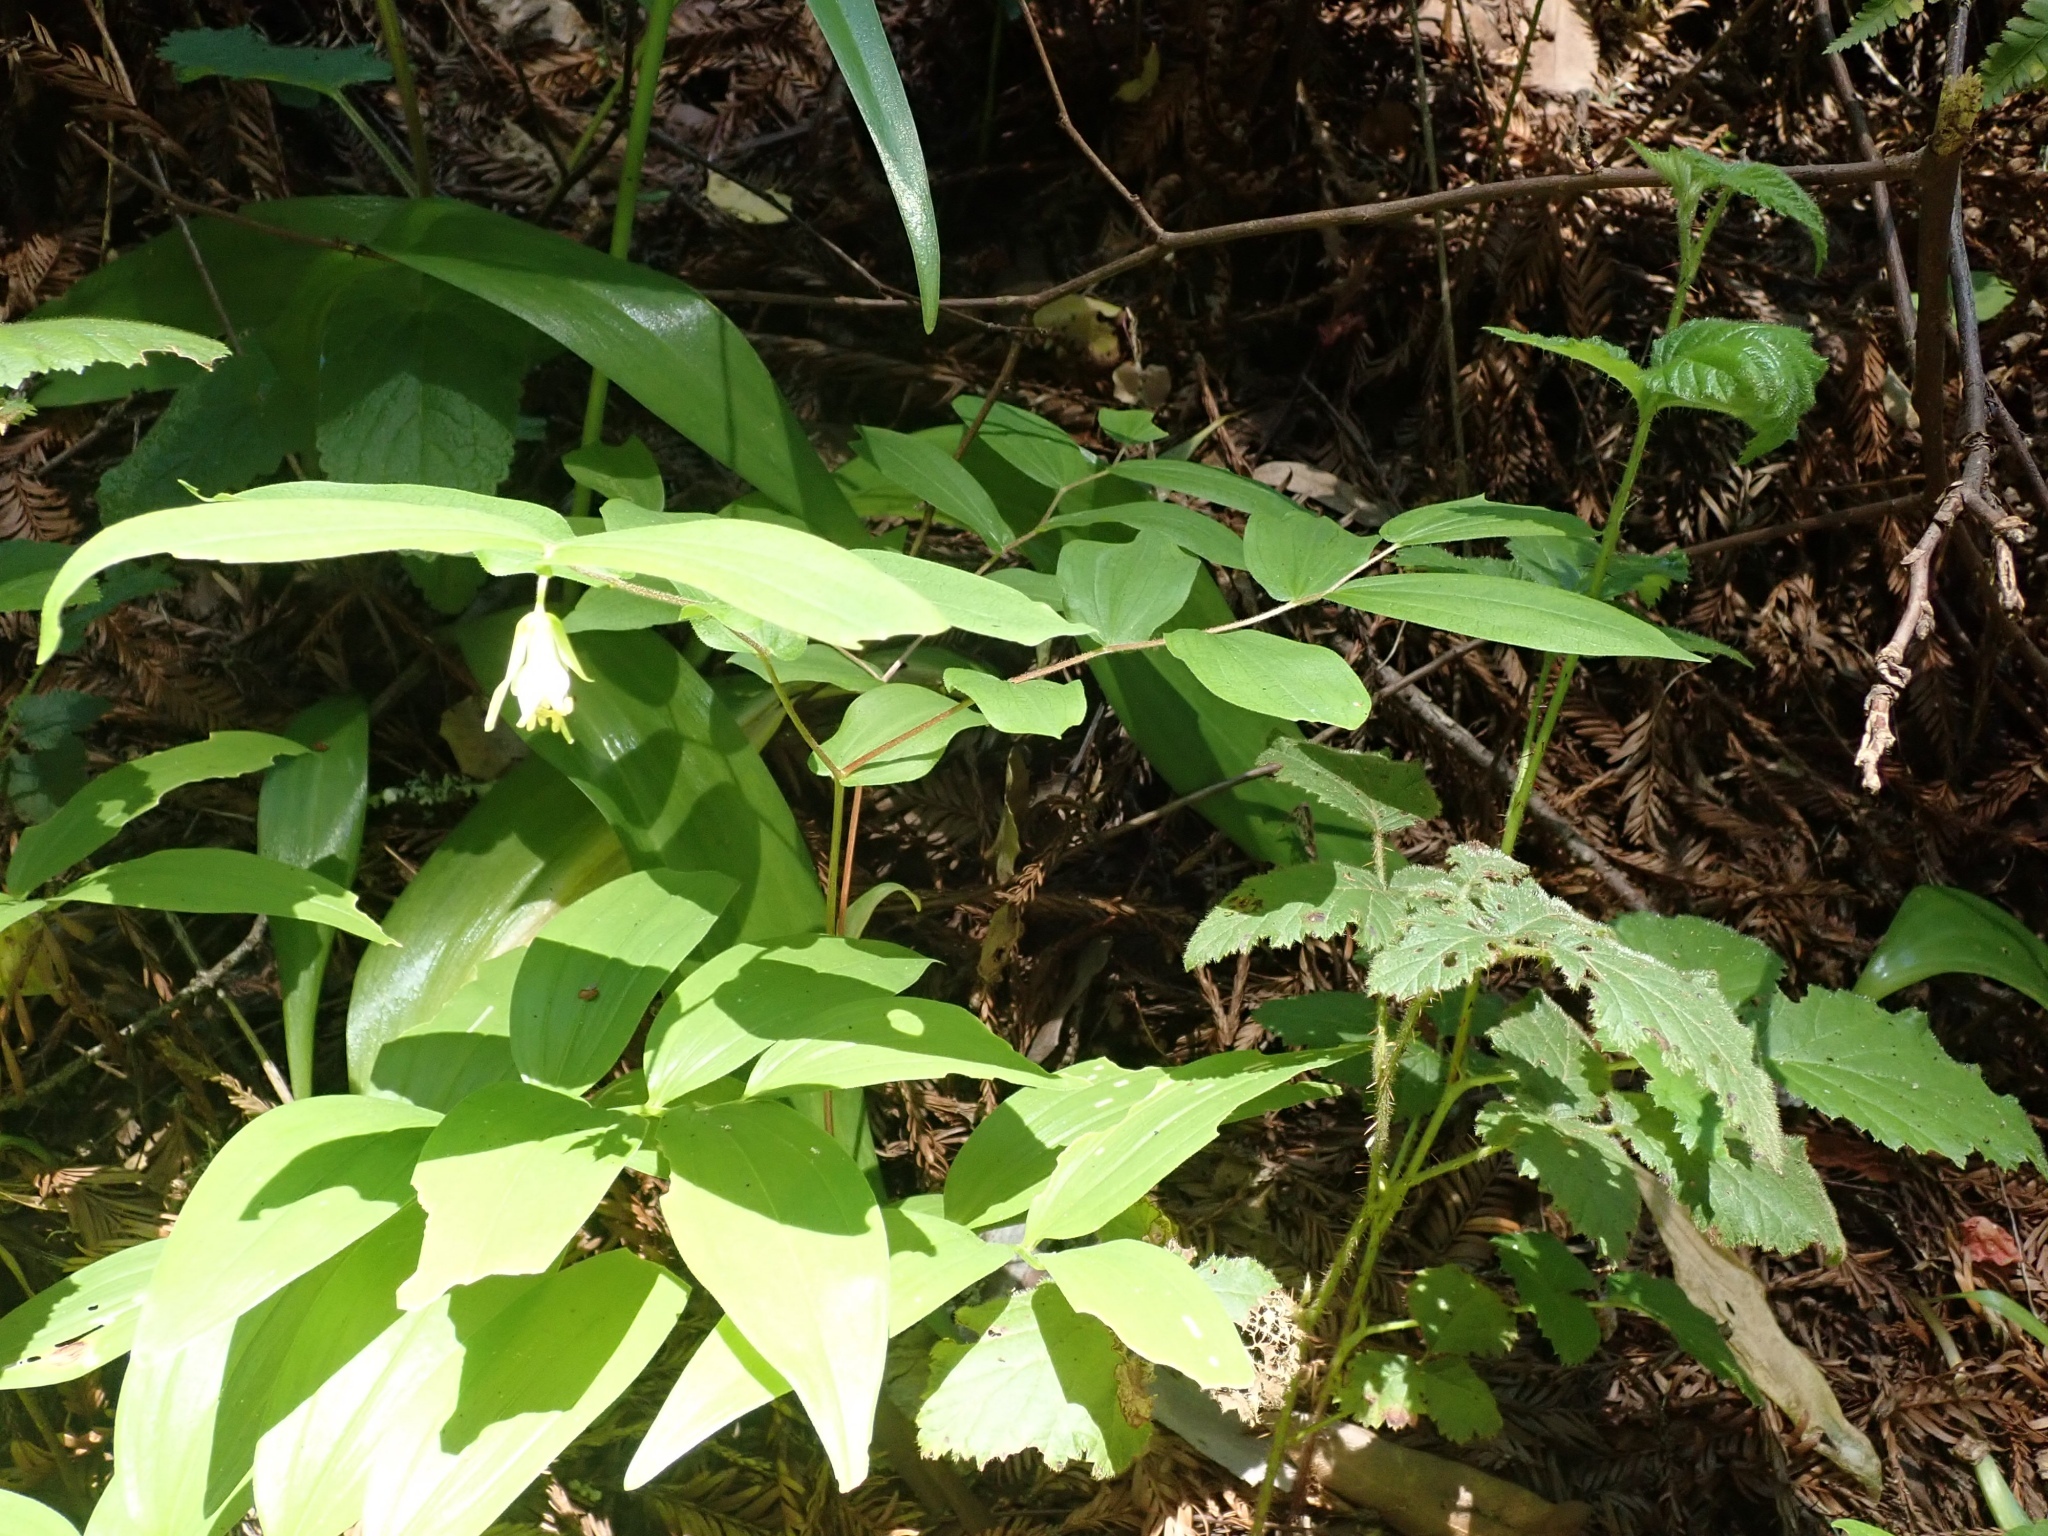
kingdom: Plantae
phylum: Tracheophyta
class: Liliopsida
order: Liliales
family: Liliaceae
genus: Prosartes
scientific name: Prosartes hookeri
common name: Fairy-bells
